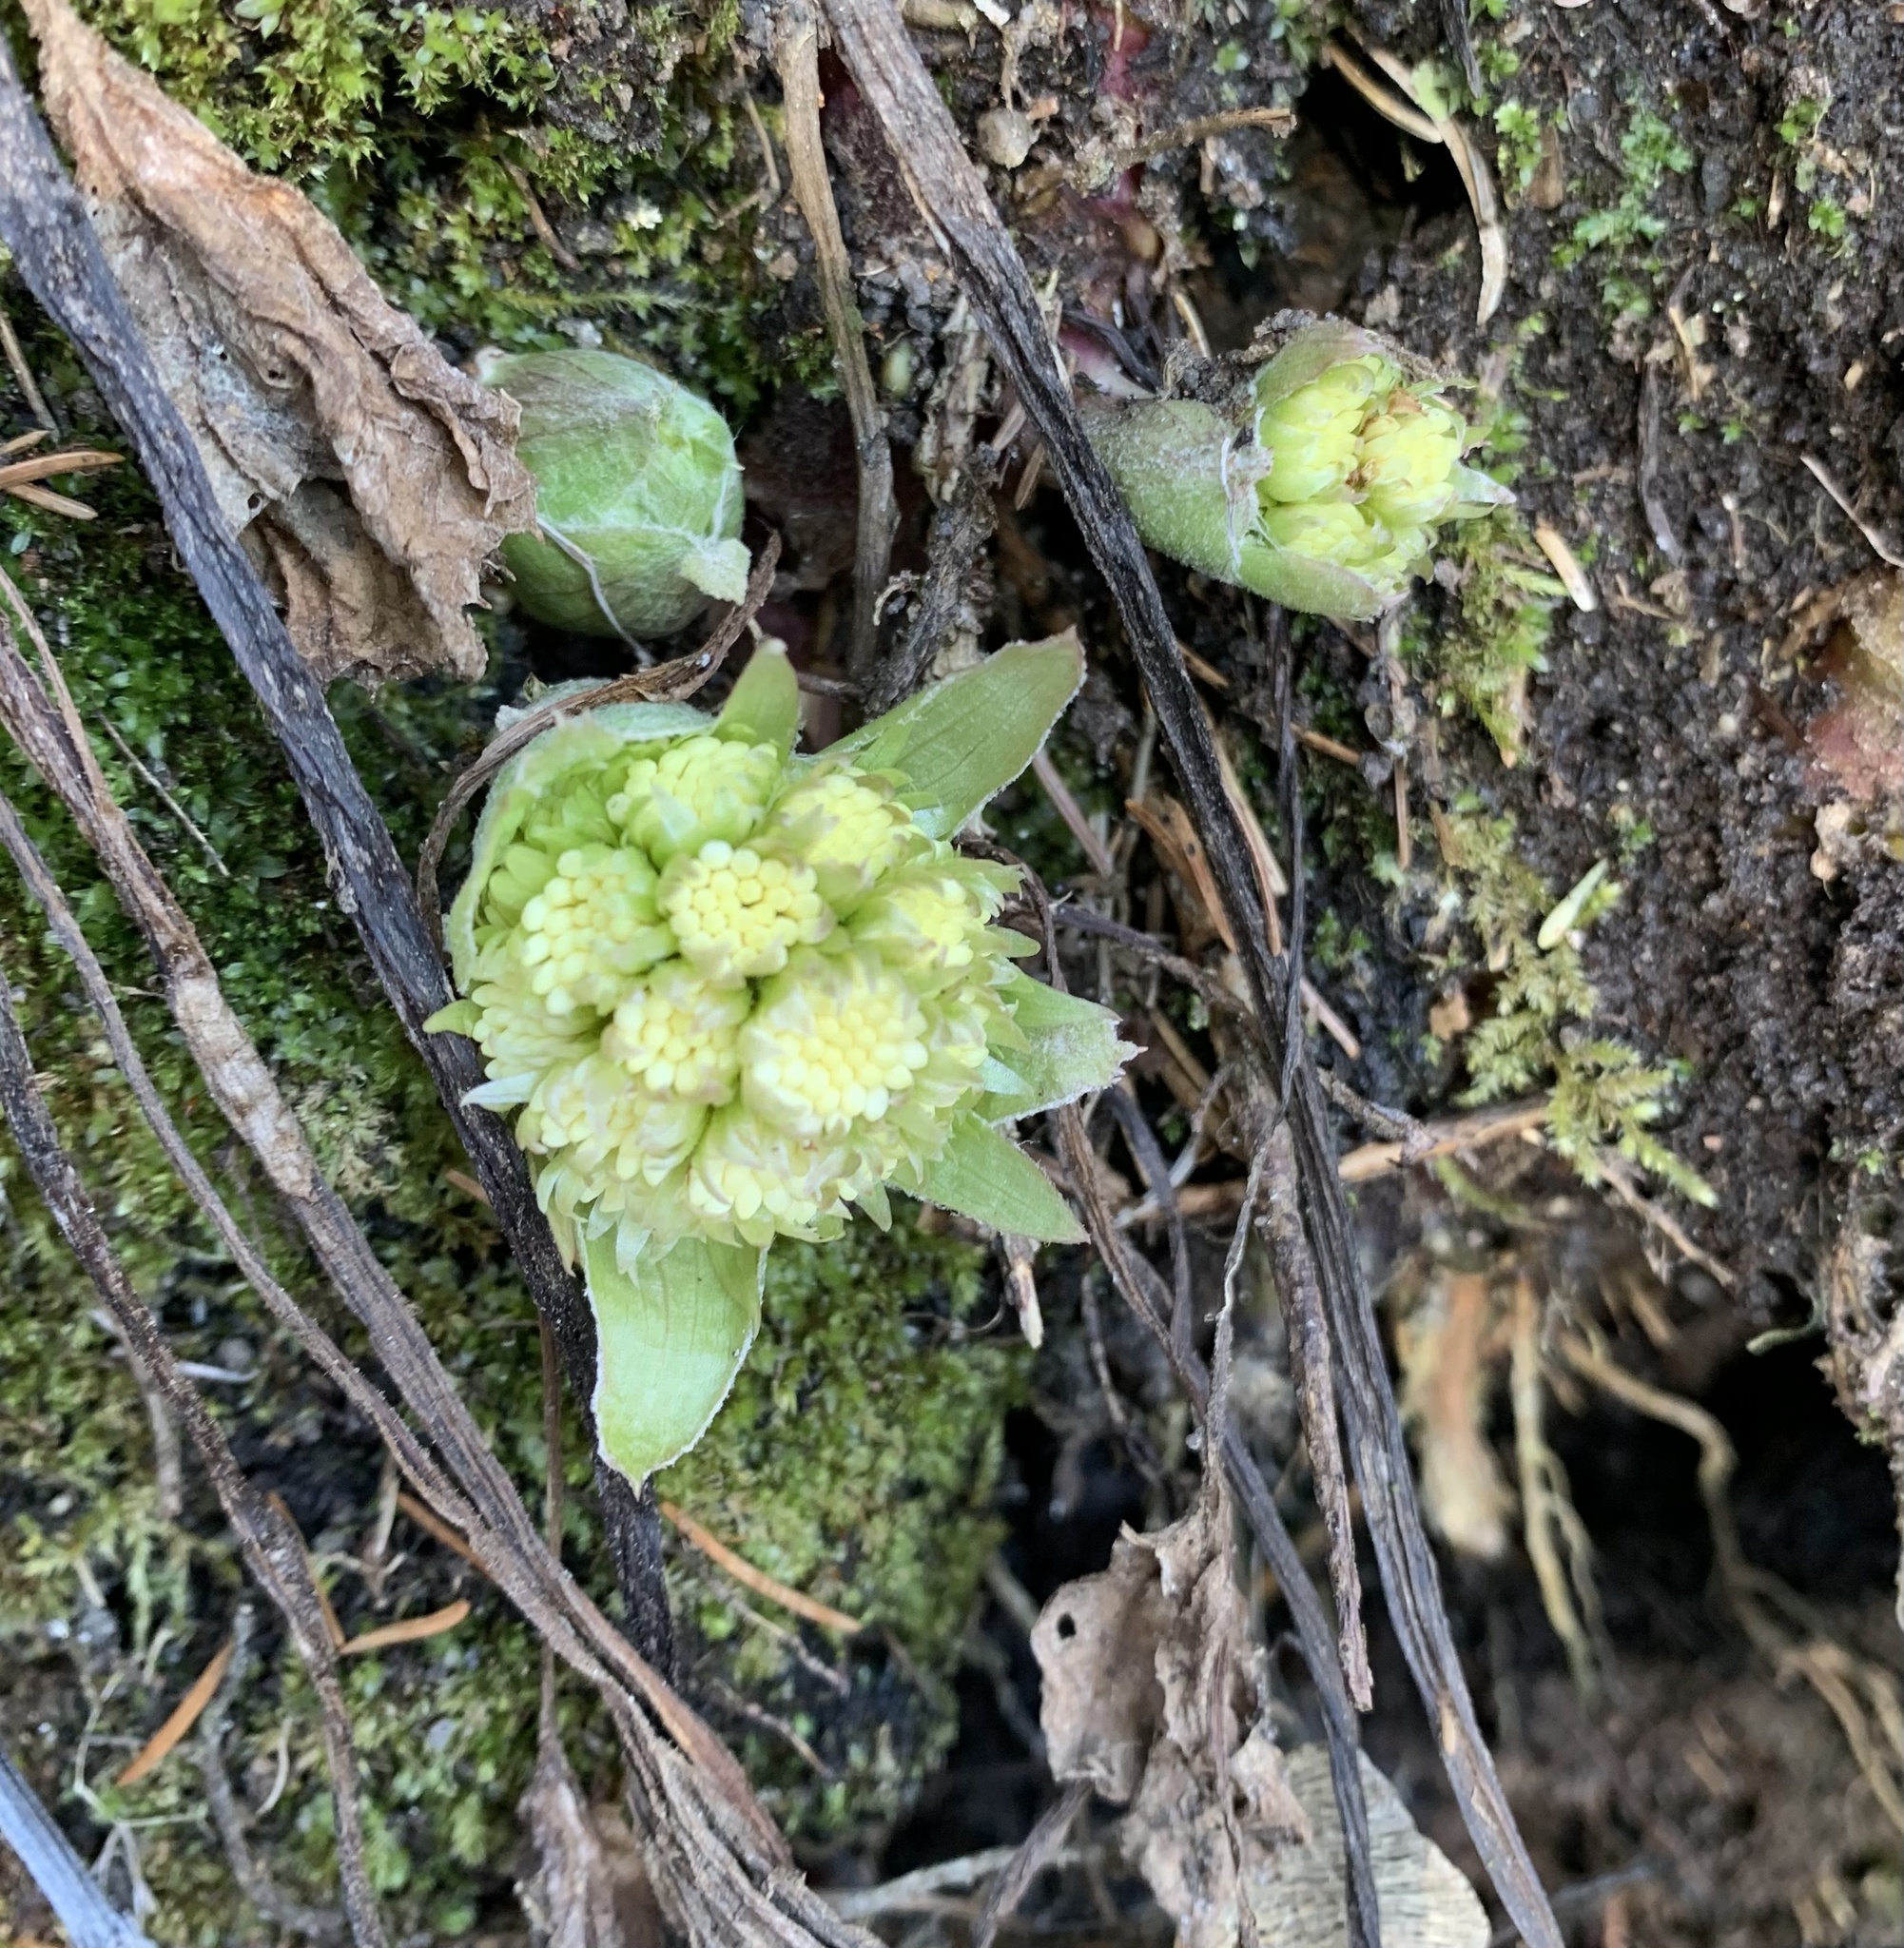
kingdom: Plantae
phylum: Tracheophyta
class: Magnoliopsida
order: Asterales
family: Asteraceae
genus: Petasites
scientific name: Petasites albus
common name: White butterbur
